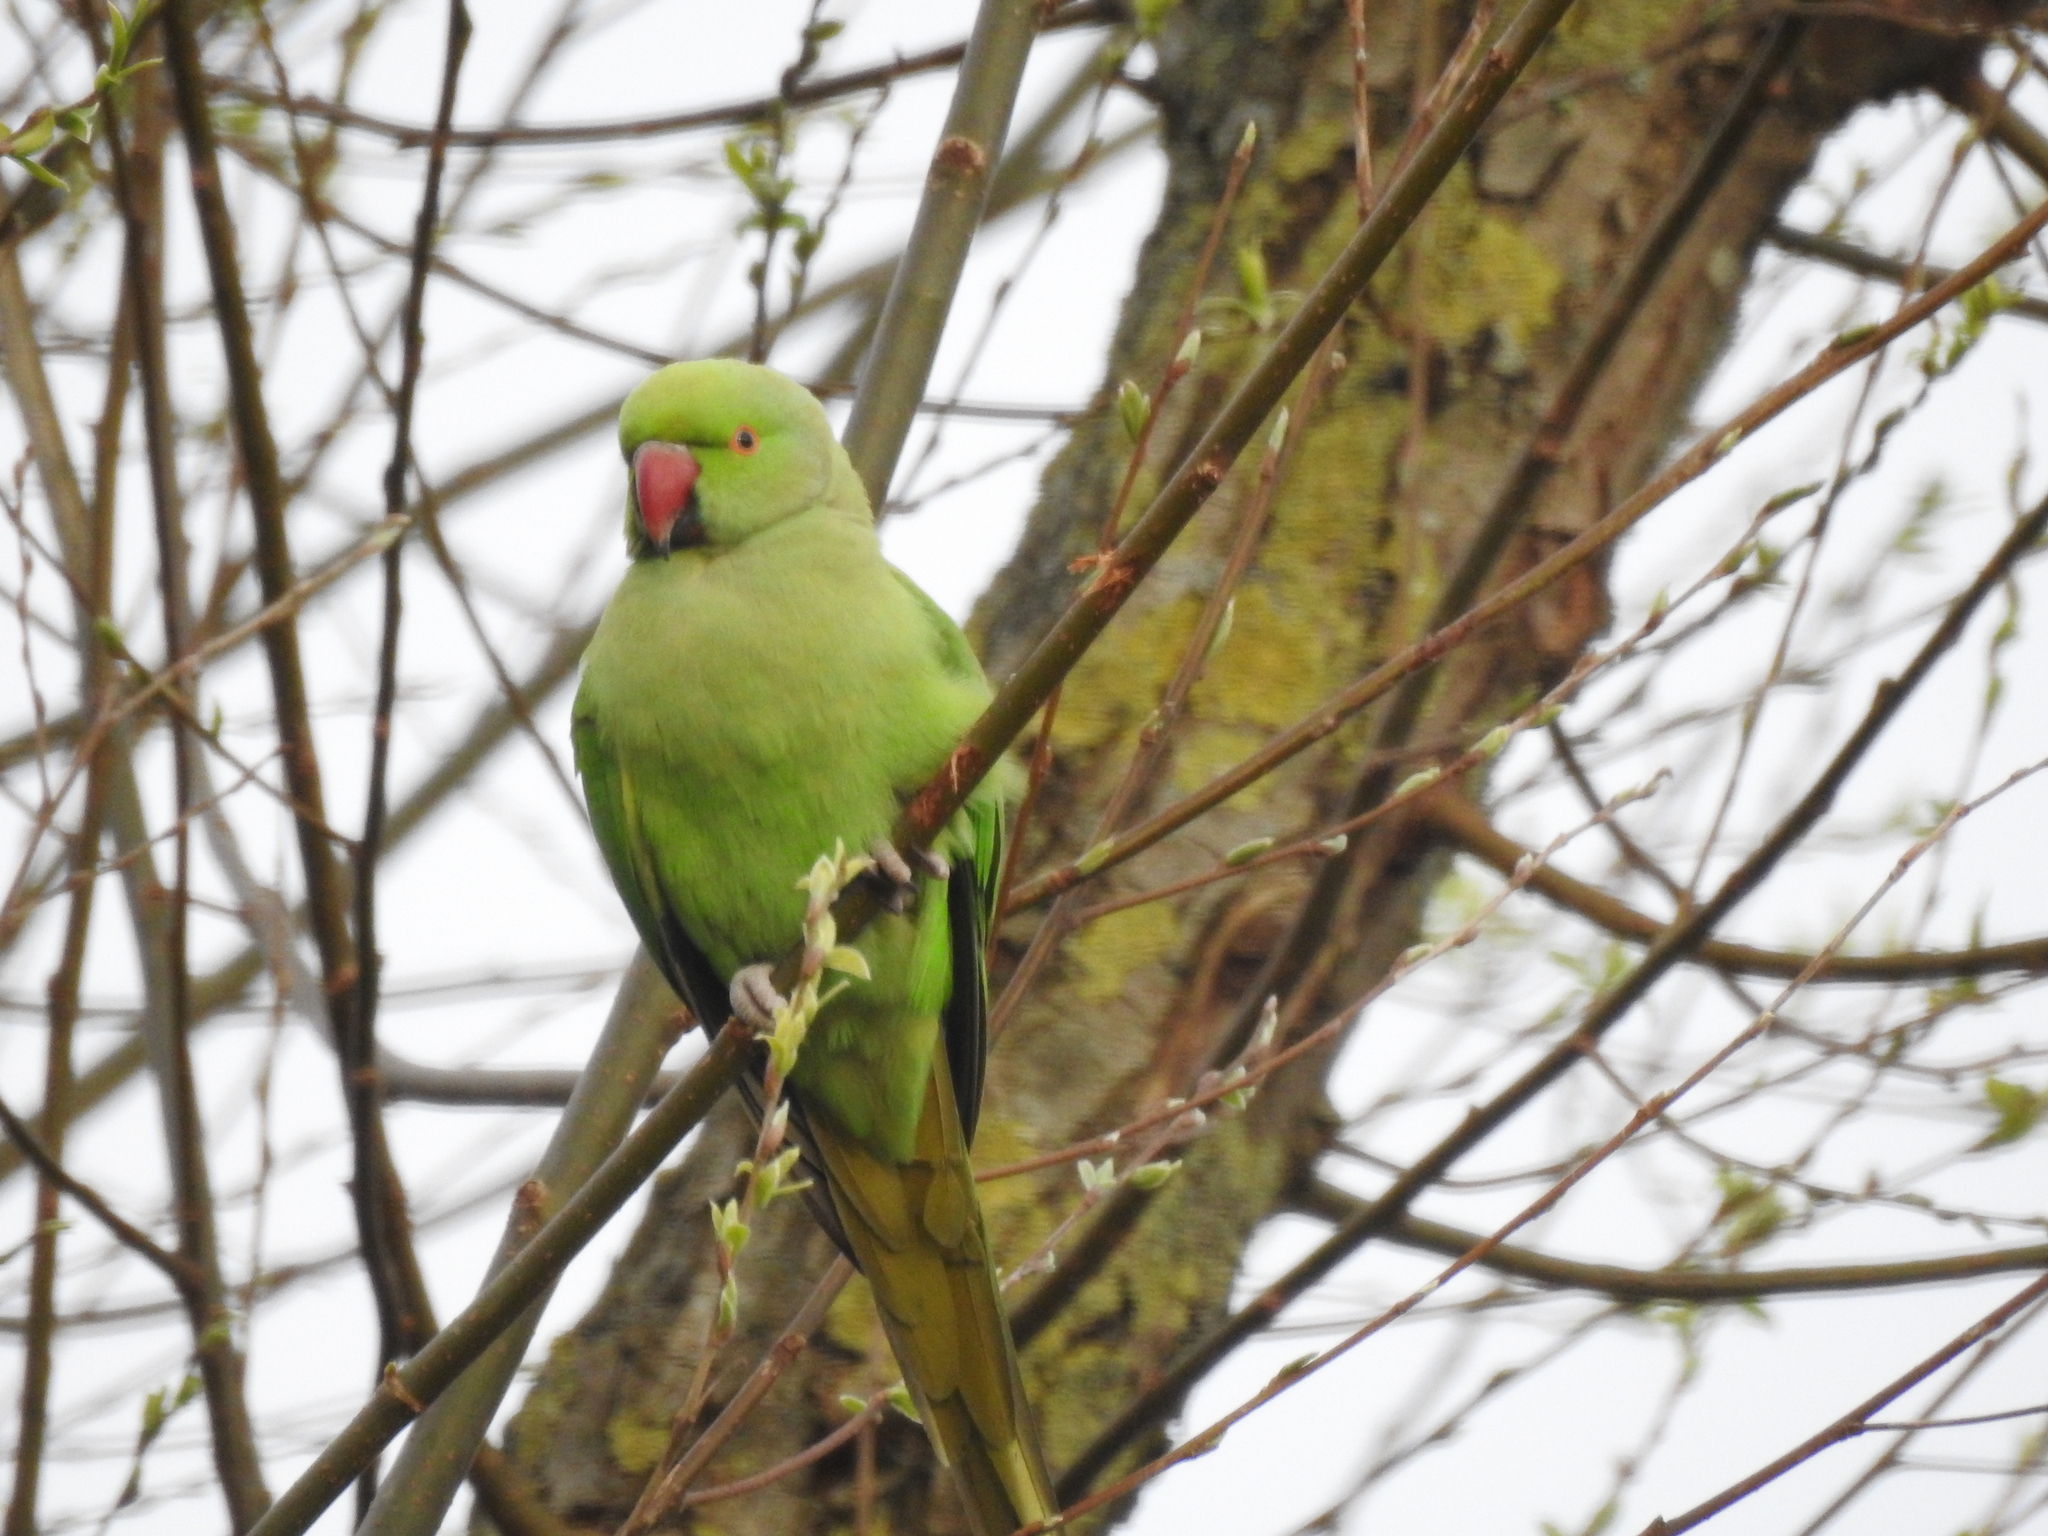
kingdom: Animalia
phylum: Chordata
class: Aves
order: Psittaciformes
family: Psittacidae
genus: Psittacula
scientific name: Psittacula krameri
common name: Rose-ringed parakeet
